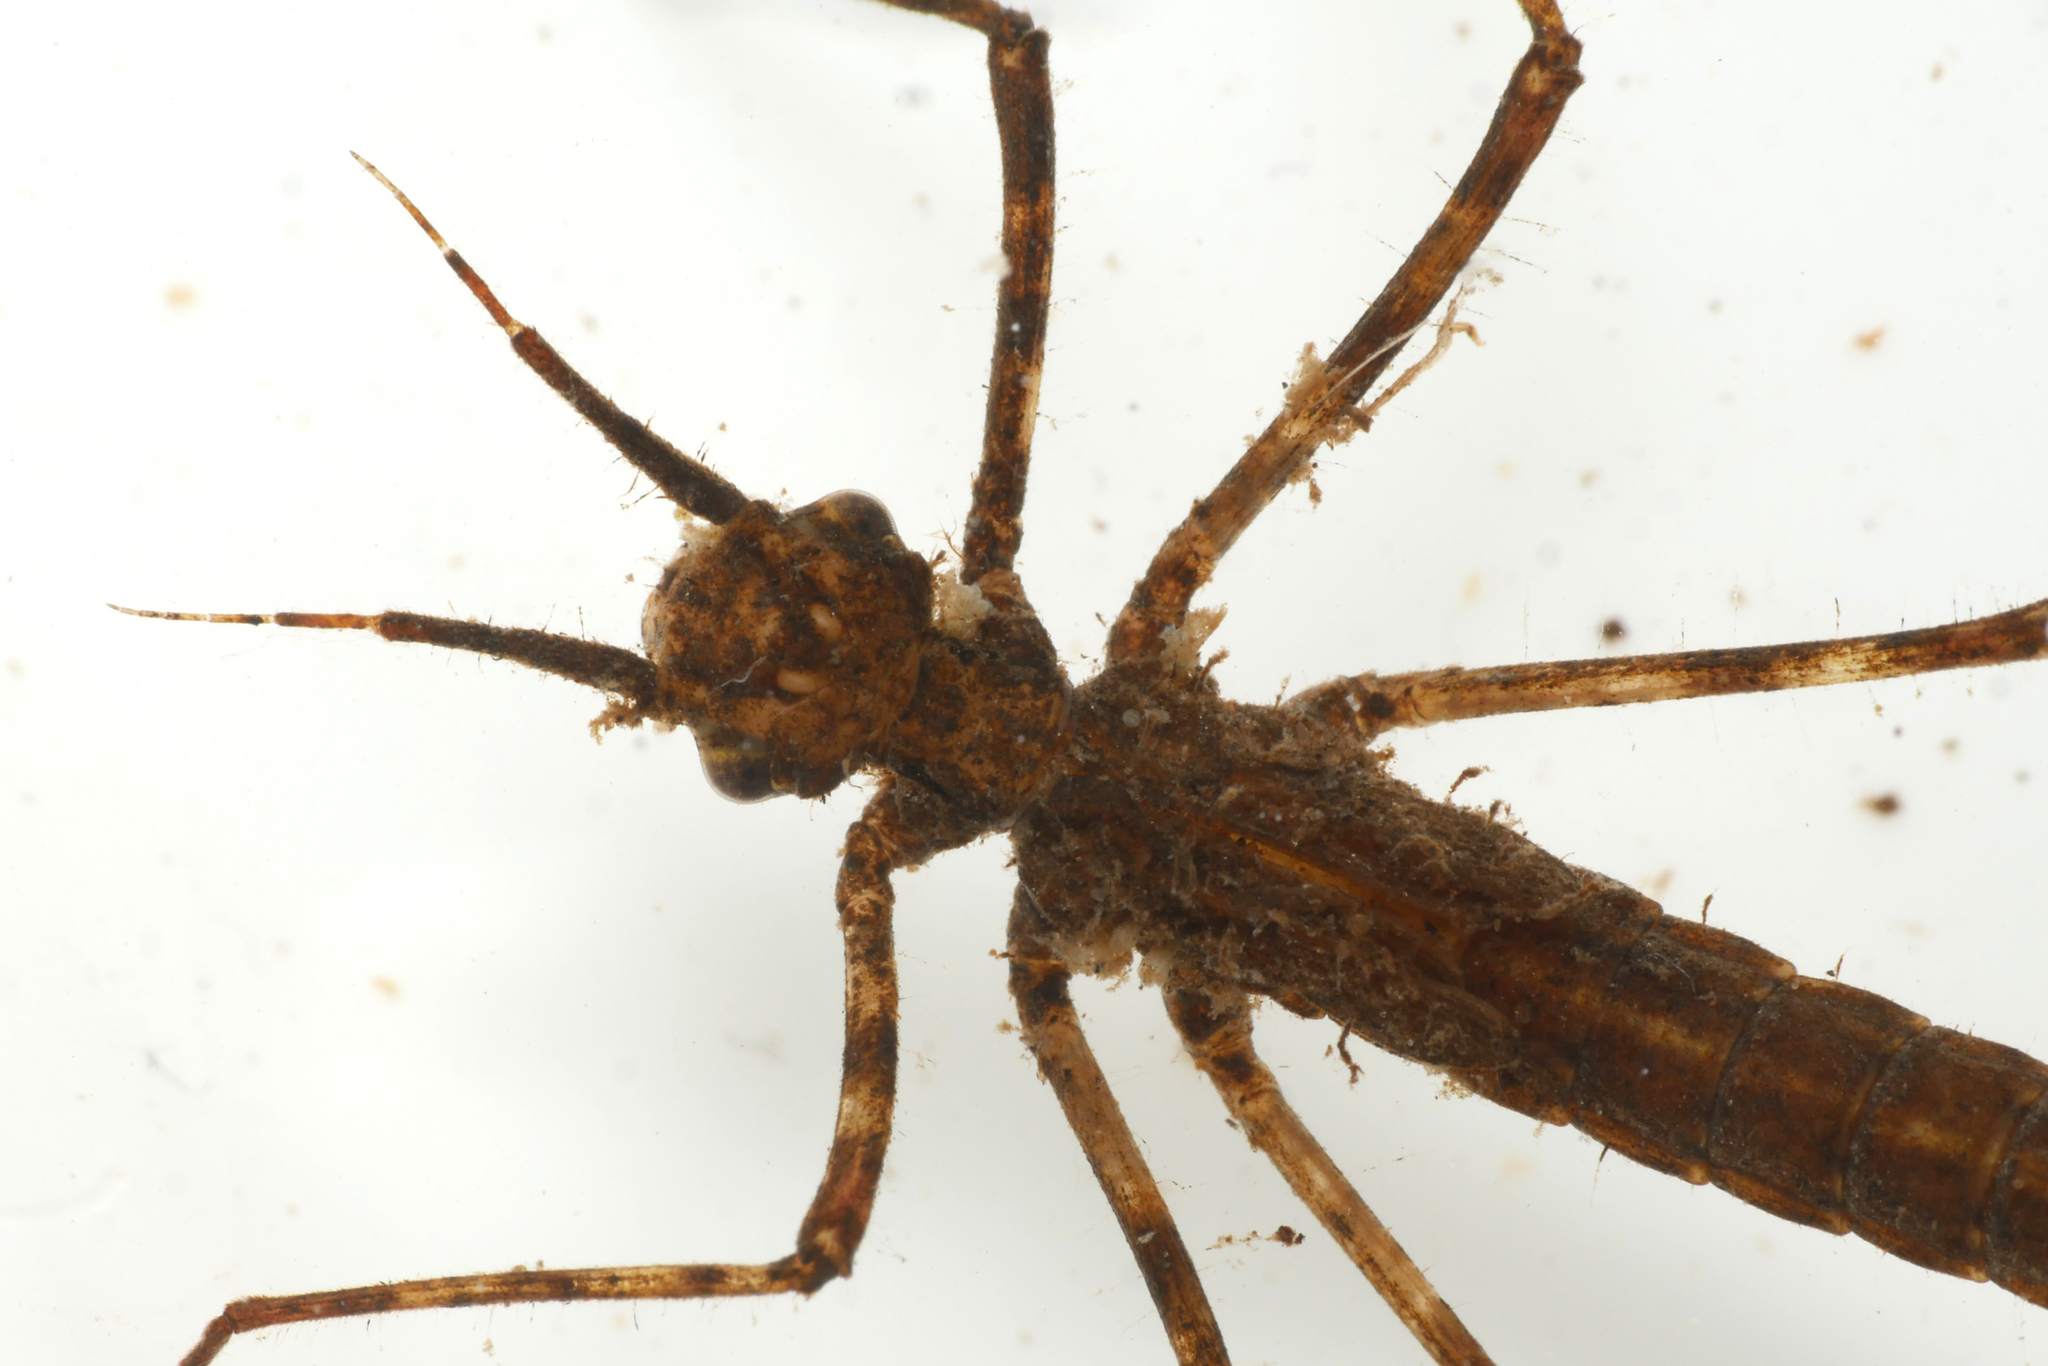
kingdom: Animalia
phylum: Arthropoda
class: Insecta
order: Odonata
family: Calopterygidae
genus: Calopteryx
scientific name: Calopteryx virgo
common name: Beautiful demoiselle
